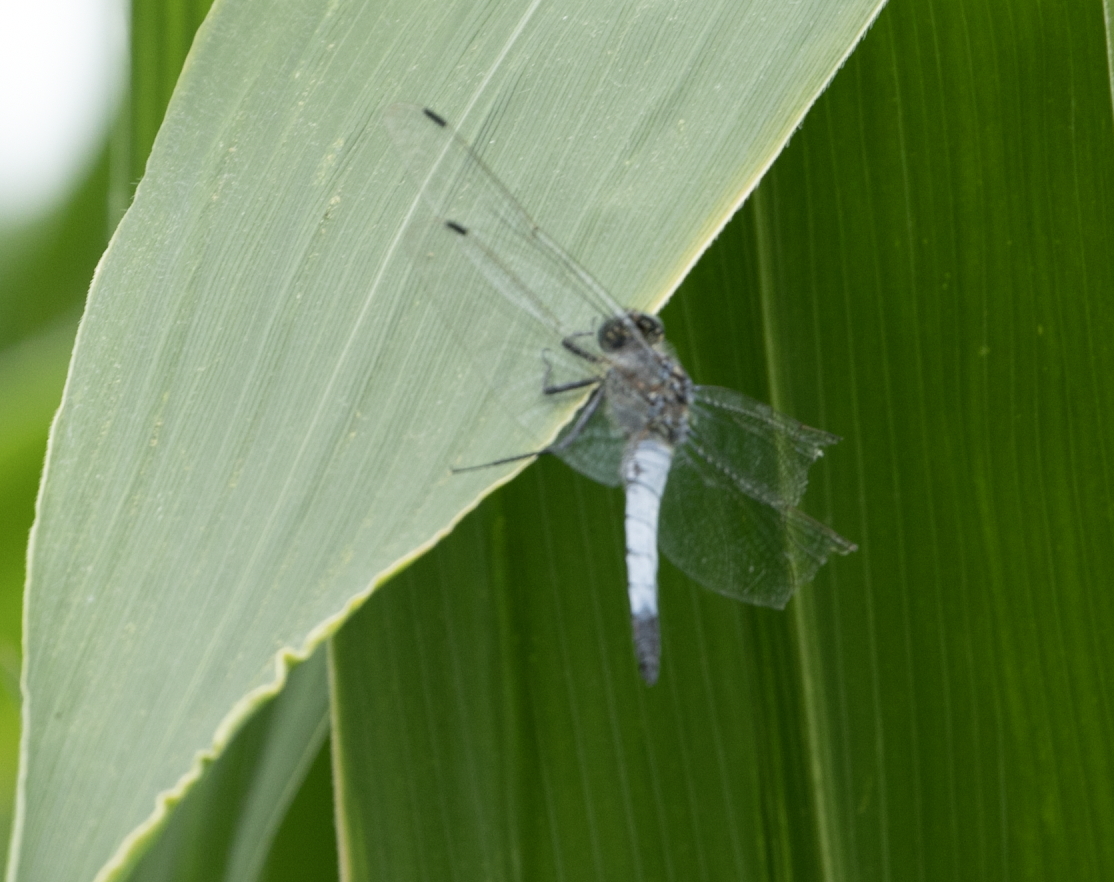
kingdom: Animalia
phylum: Arthropoda
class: Insecta
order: Odonata
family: Libellulidae
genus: Orthetrum
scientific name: Orthetrum cancellatum
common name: Black-tailed skimmer
